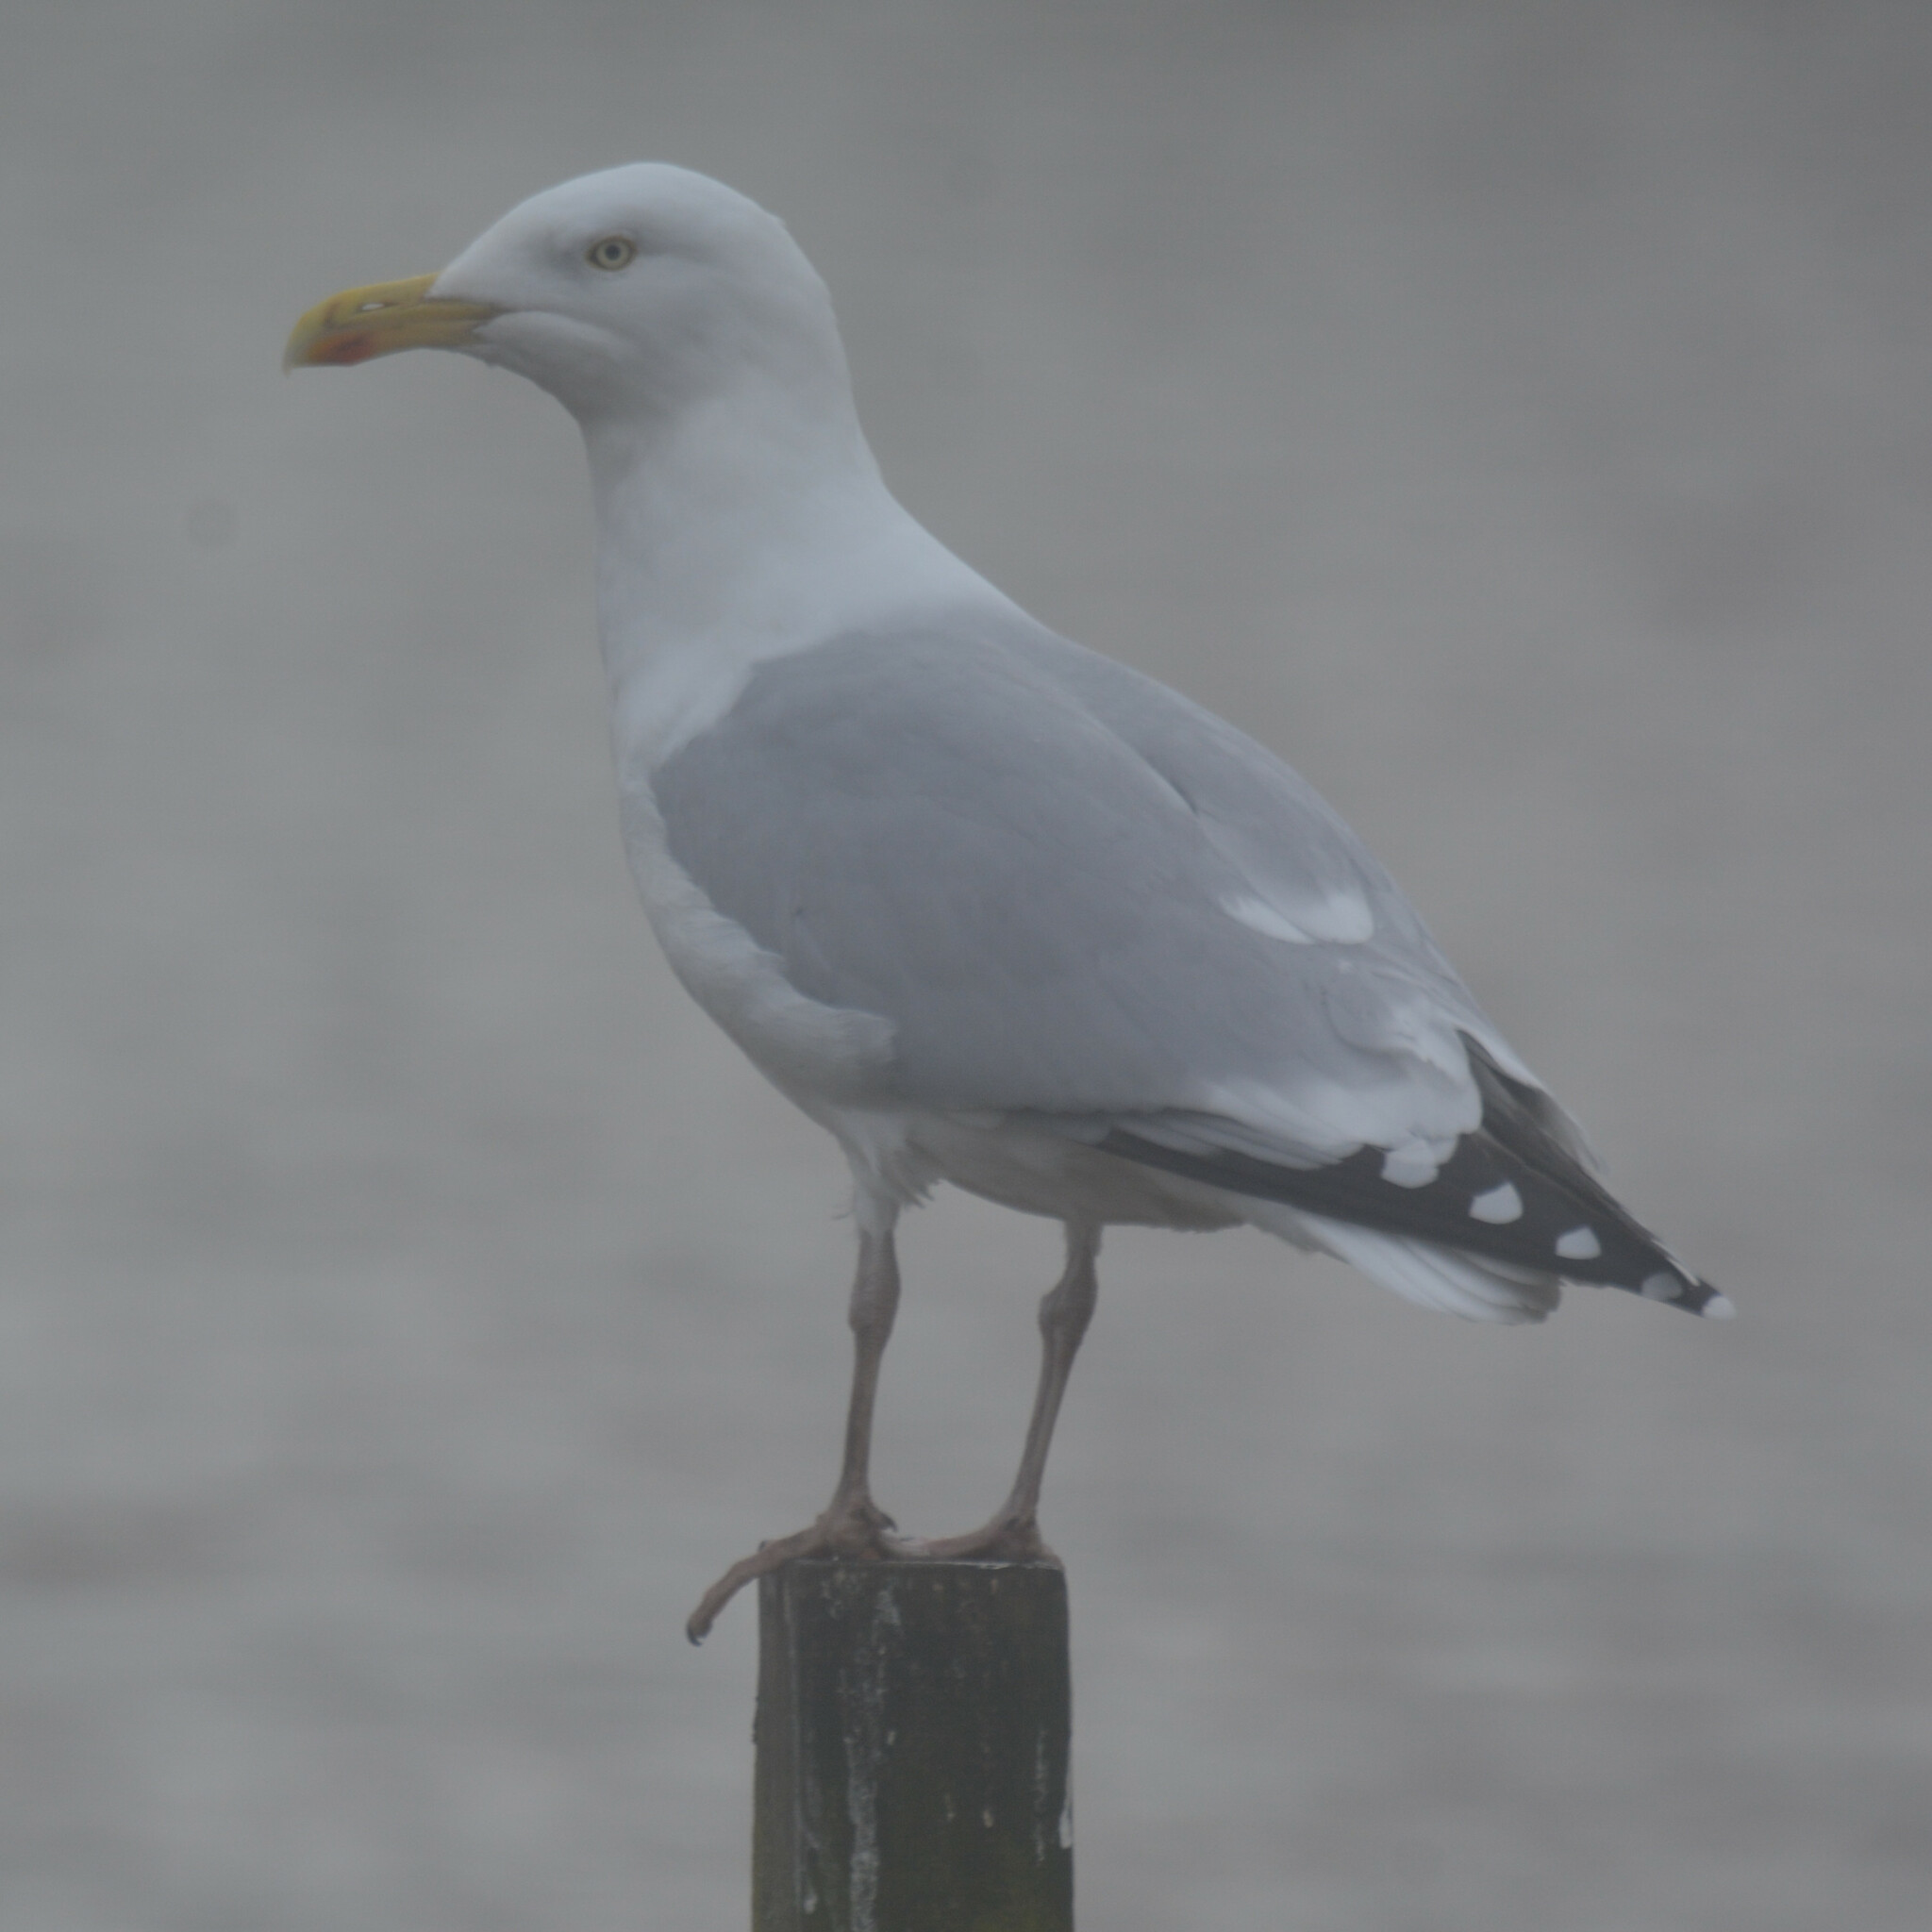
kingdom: Animalia
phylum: Chordata
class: Aves
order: Charadriiformes
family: Laridae
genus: Larus
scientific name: Larus argentatus
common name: Herring gull
